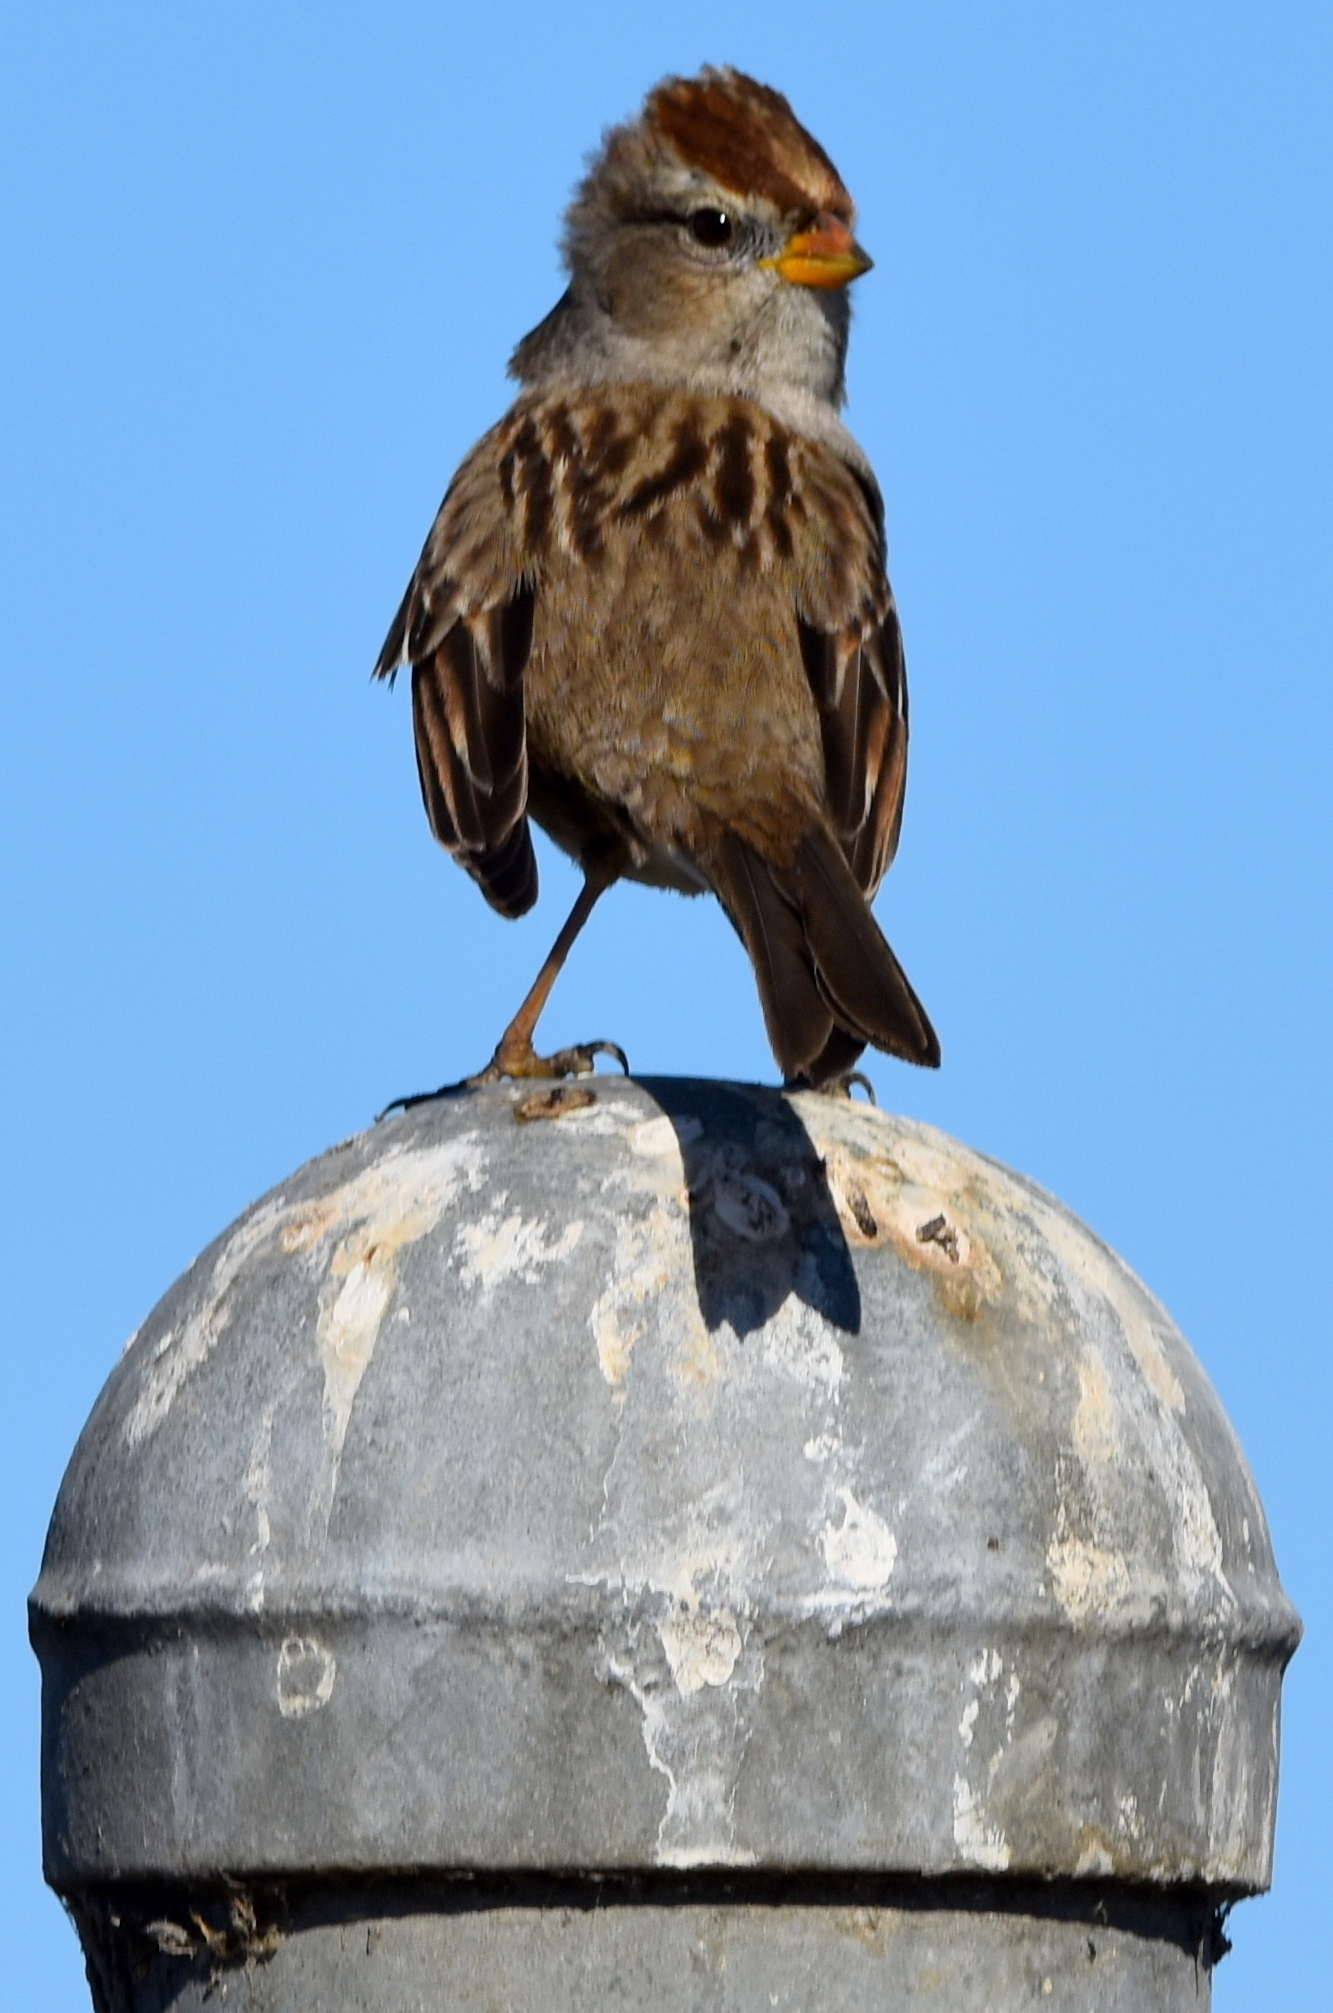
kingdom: Animalia
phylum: Chordata
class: Aves
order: Passeriformes
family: Passerellidae
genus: Zonotrichia
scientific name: Zonotrichia leucophrys
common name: White-crowned sparrow
